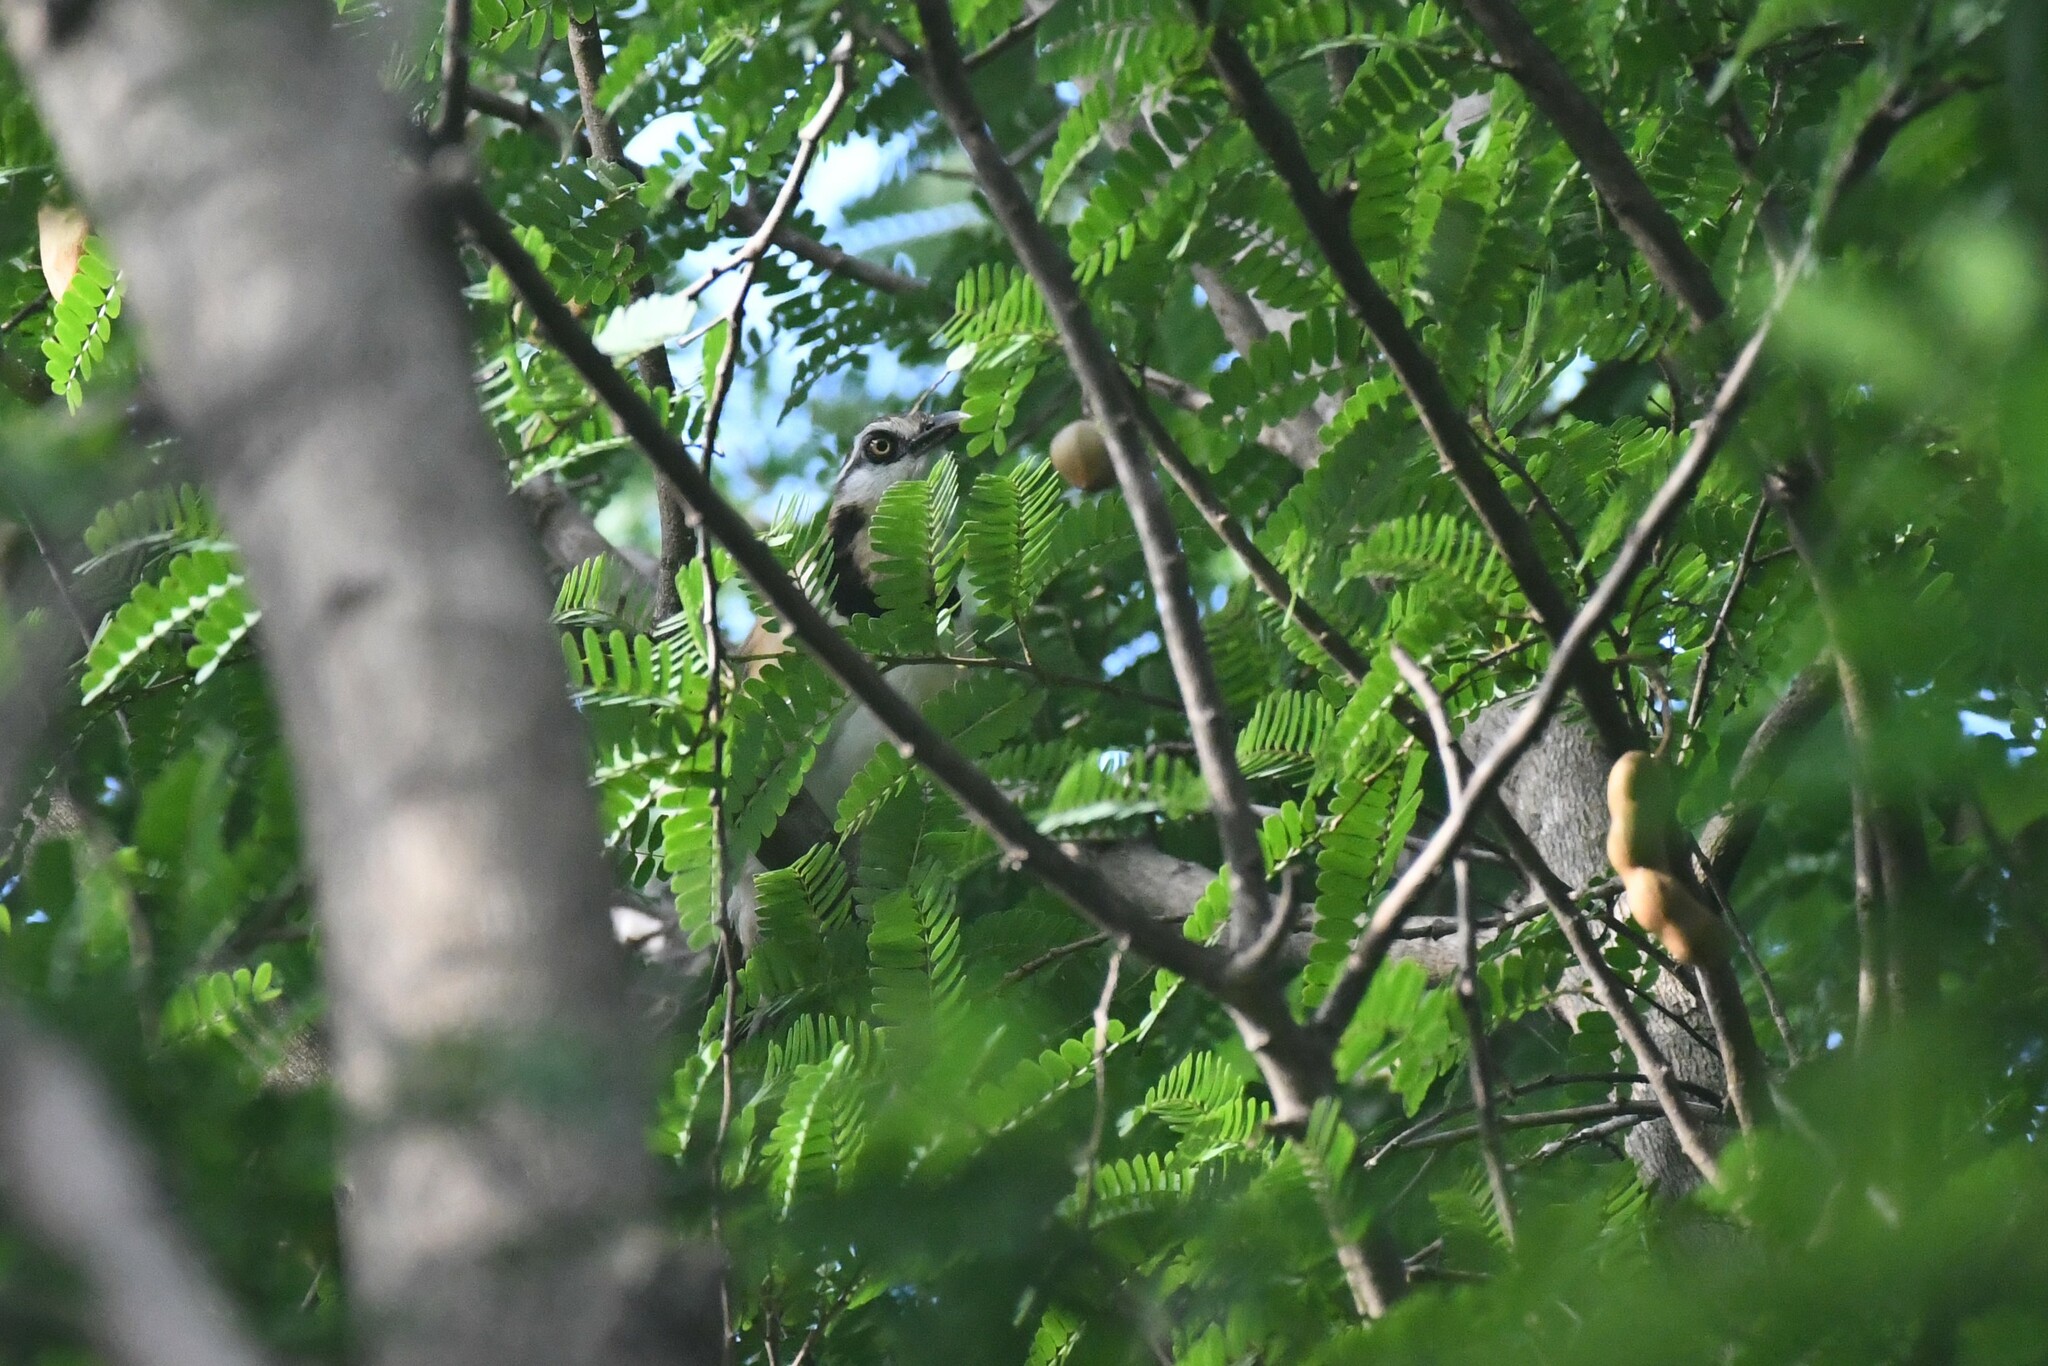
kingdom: Animalia
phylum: Chordata
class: Aves
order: Passeriformes
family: Leiothrichidae
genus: Garrulax
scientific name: Garrulax monileger
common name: Lesser necklaced laughingthrush
